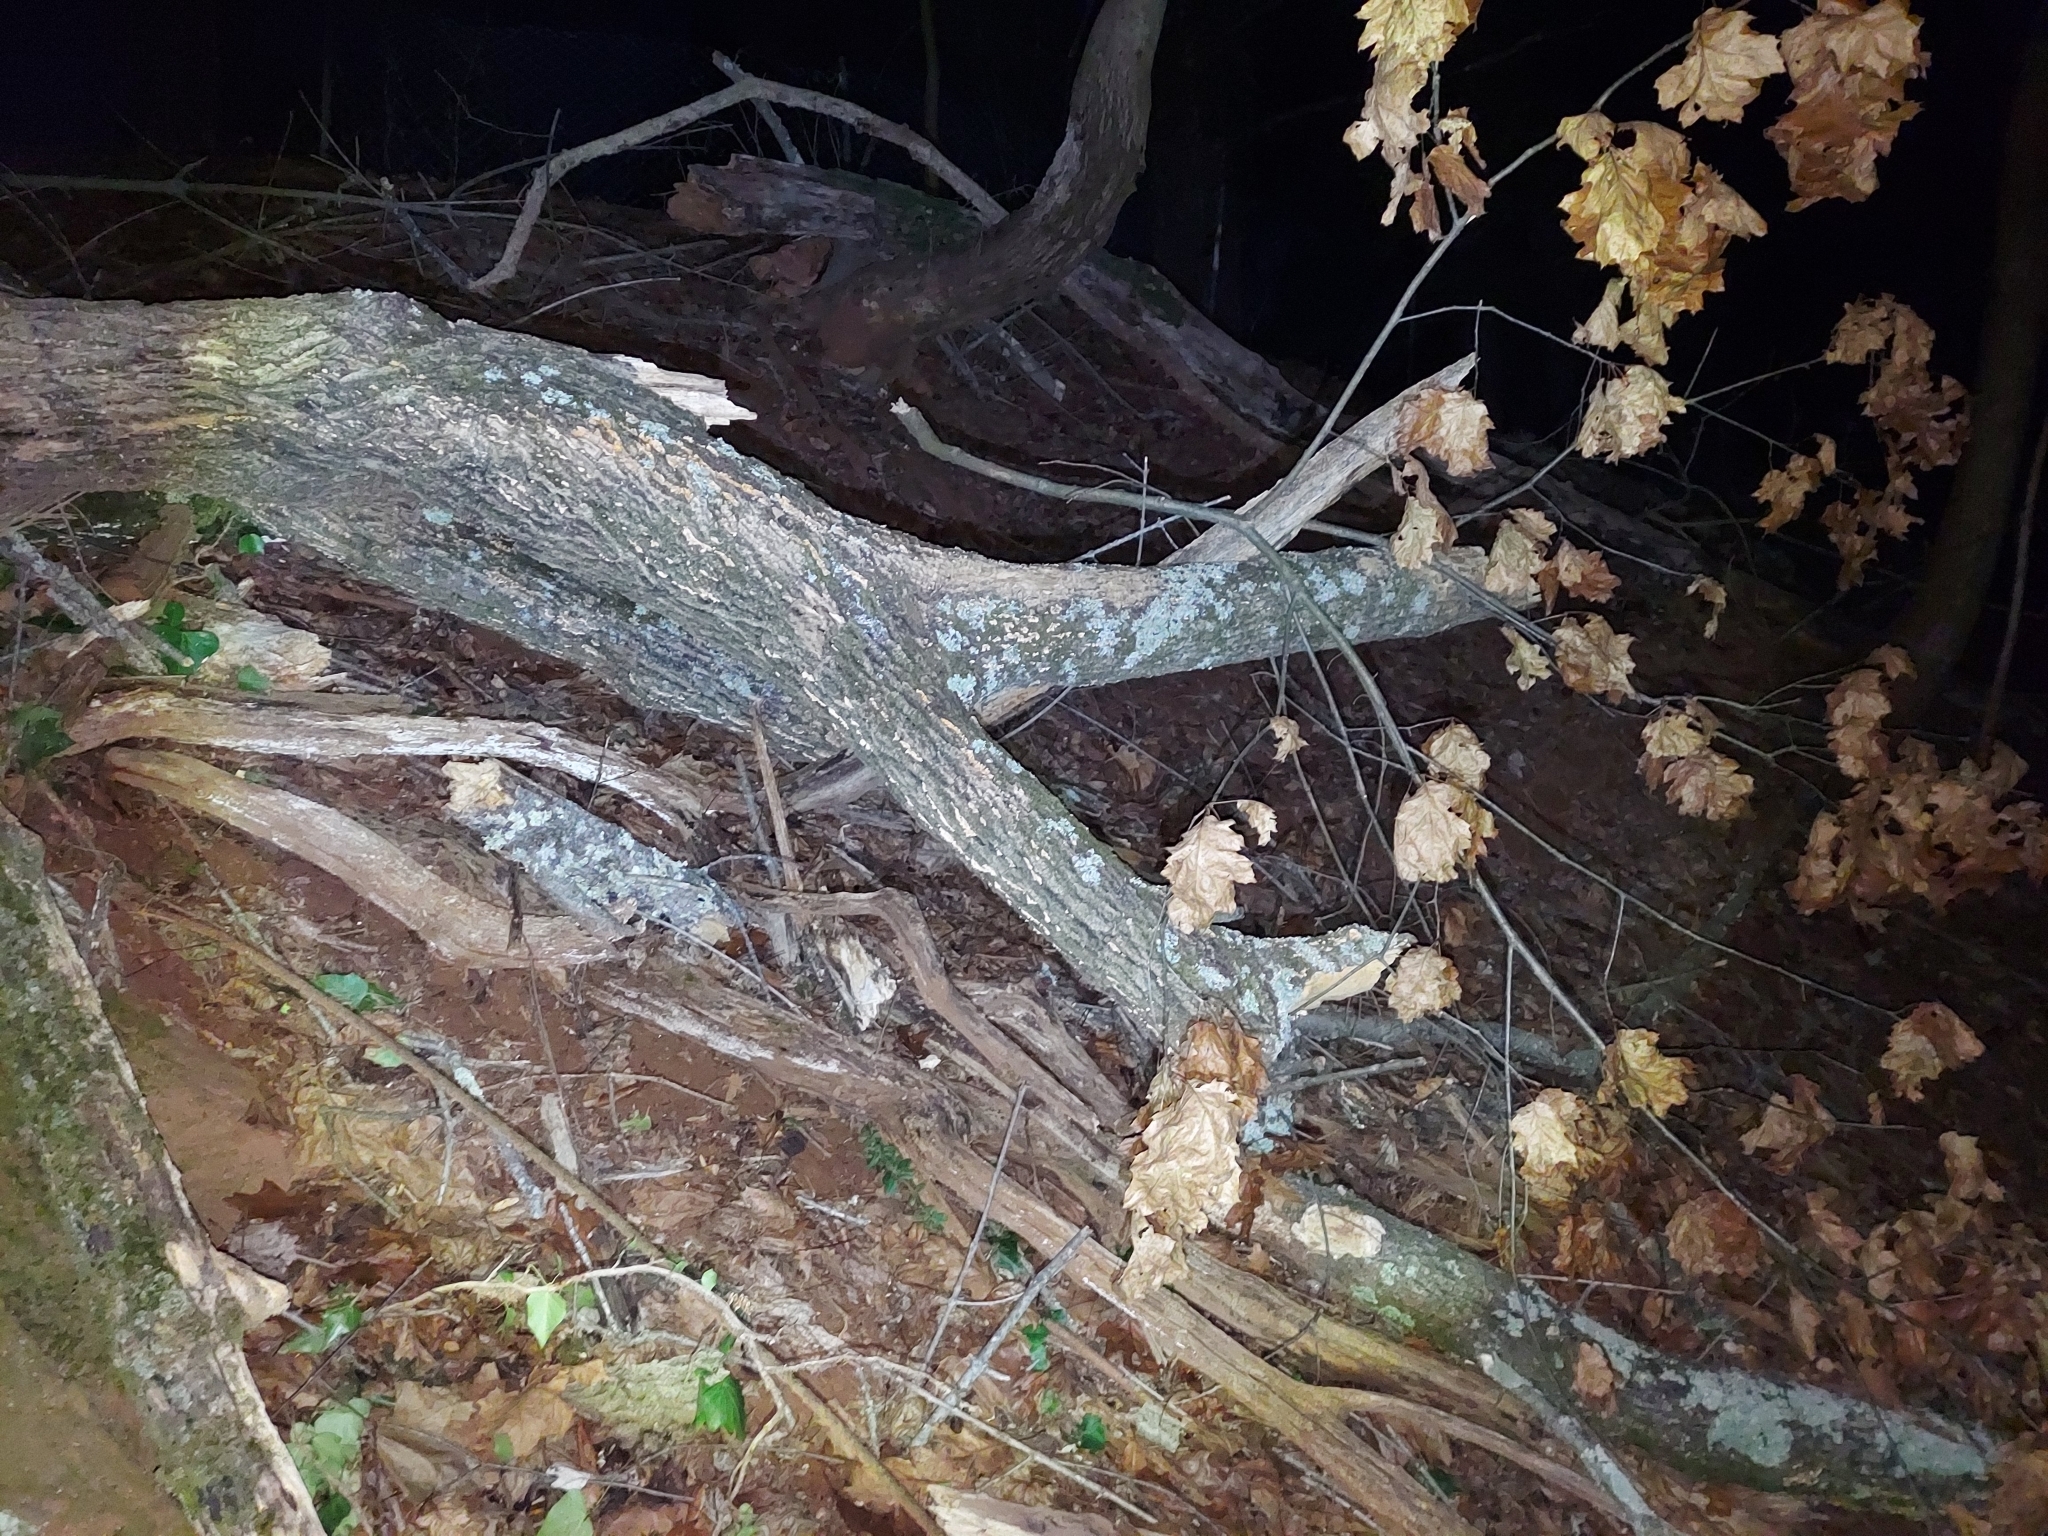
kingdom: Plantae
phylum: Tracheophyta
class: Magnoliopsida
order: Fagales
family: Fagaceae
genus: Quercus
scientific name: Quercus rubra
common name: Red oak
